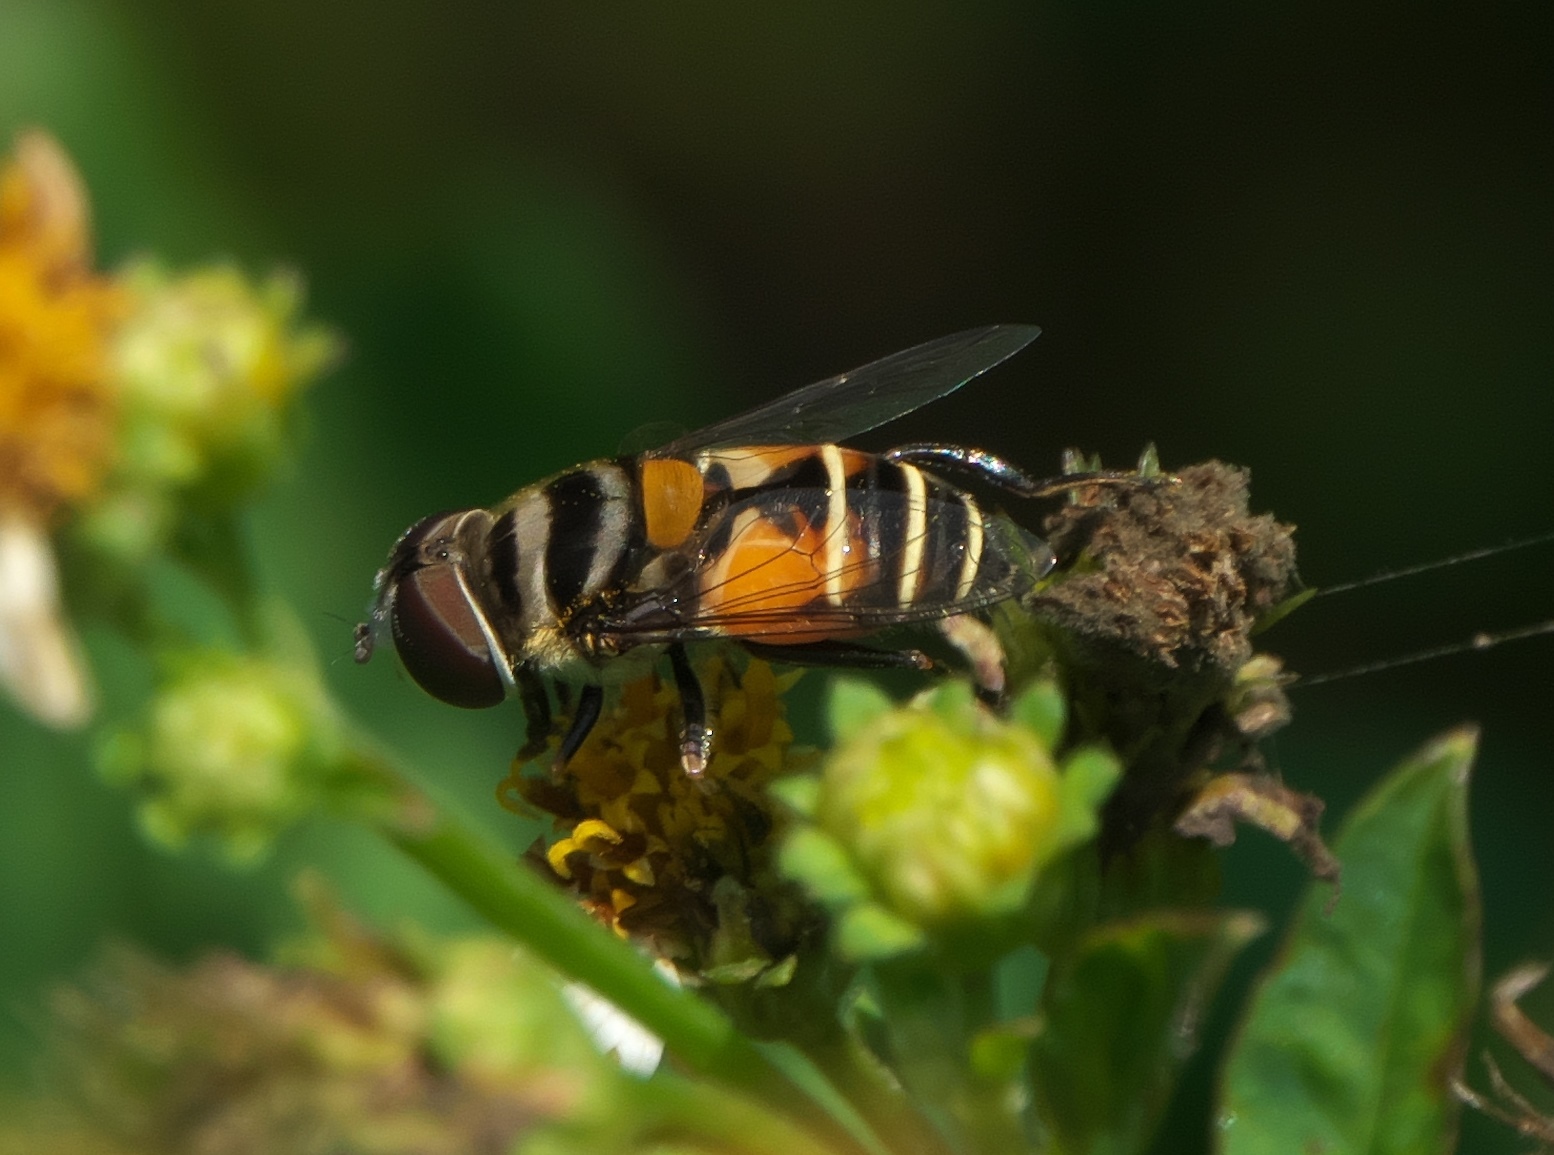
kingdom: Animalia
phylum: Arthropoda
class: Insecta
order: Diptera
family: Syrphidae
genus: Palpada
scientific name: Palpada albifrons
